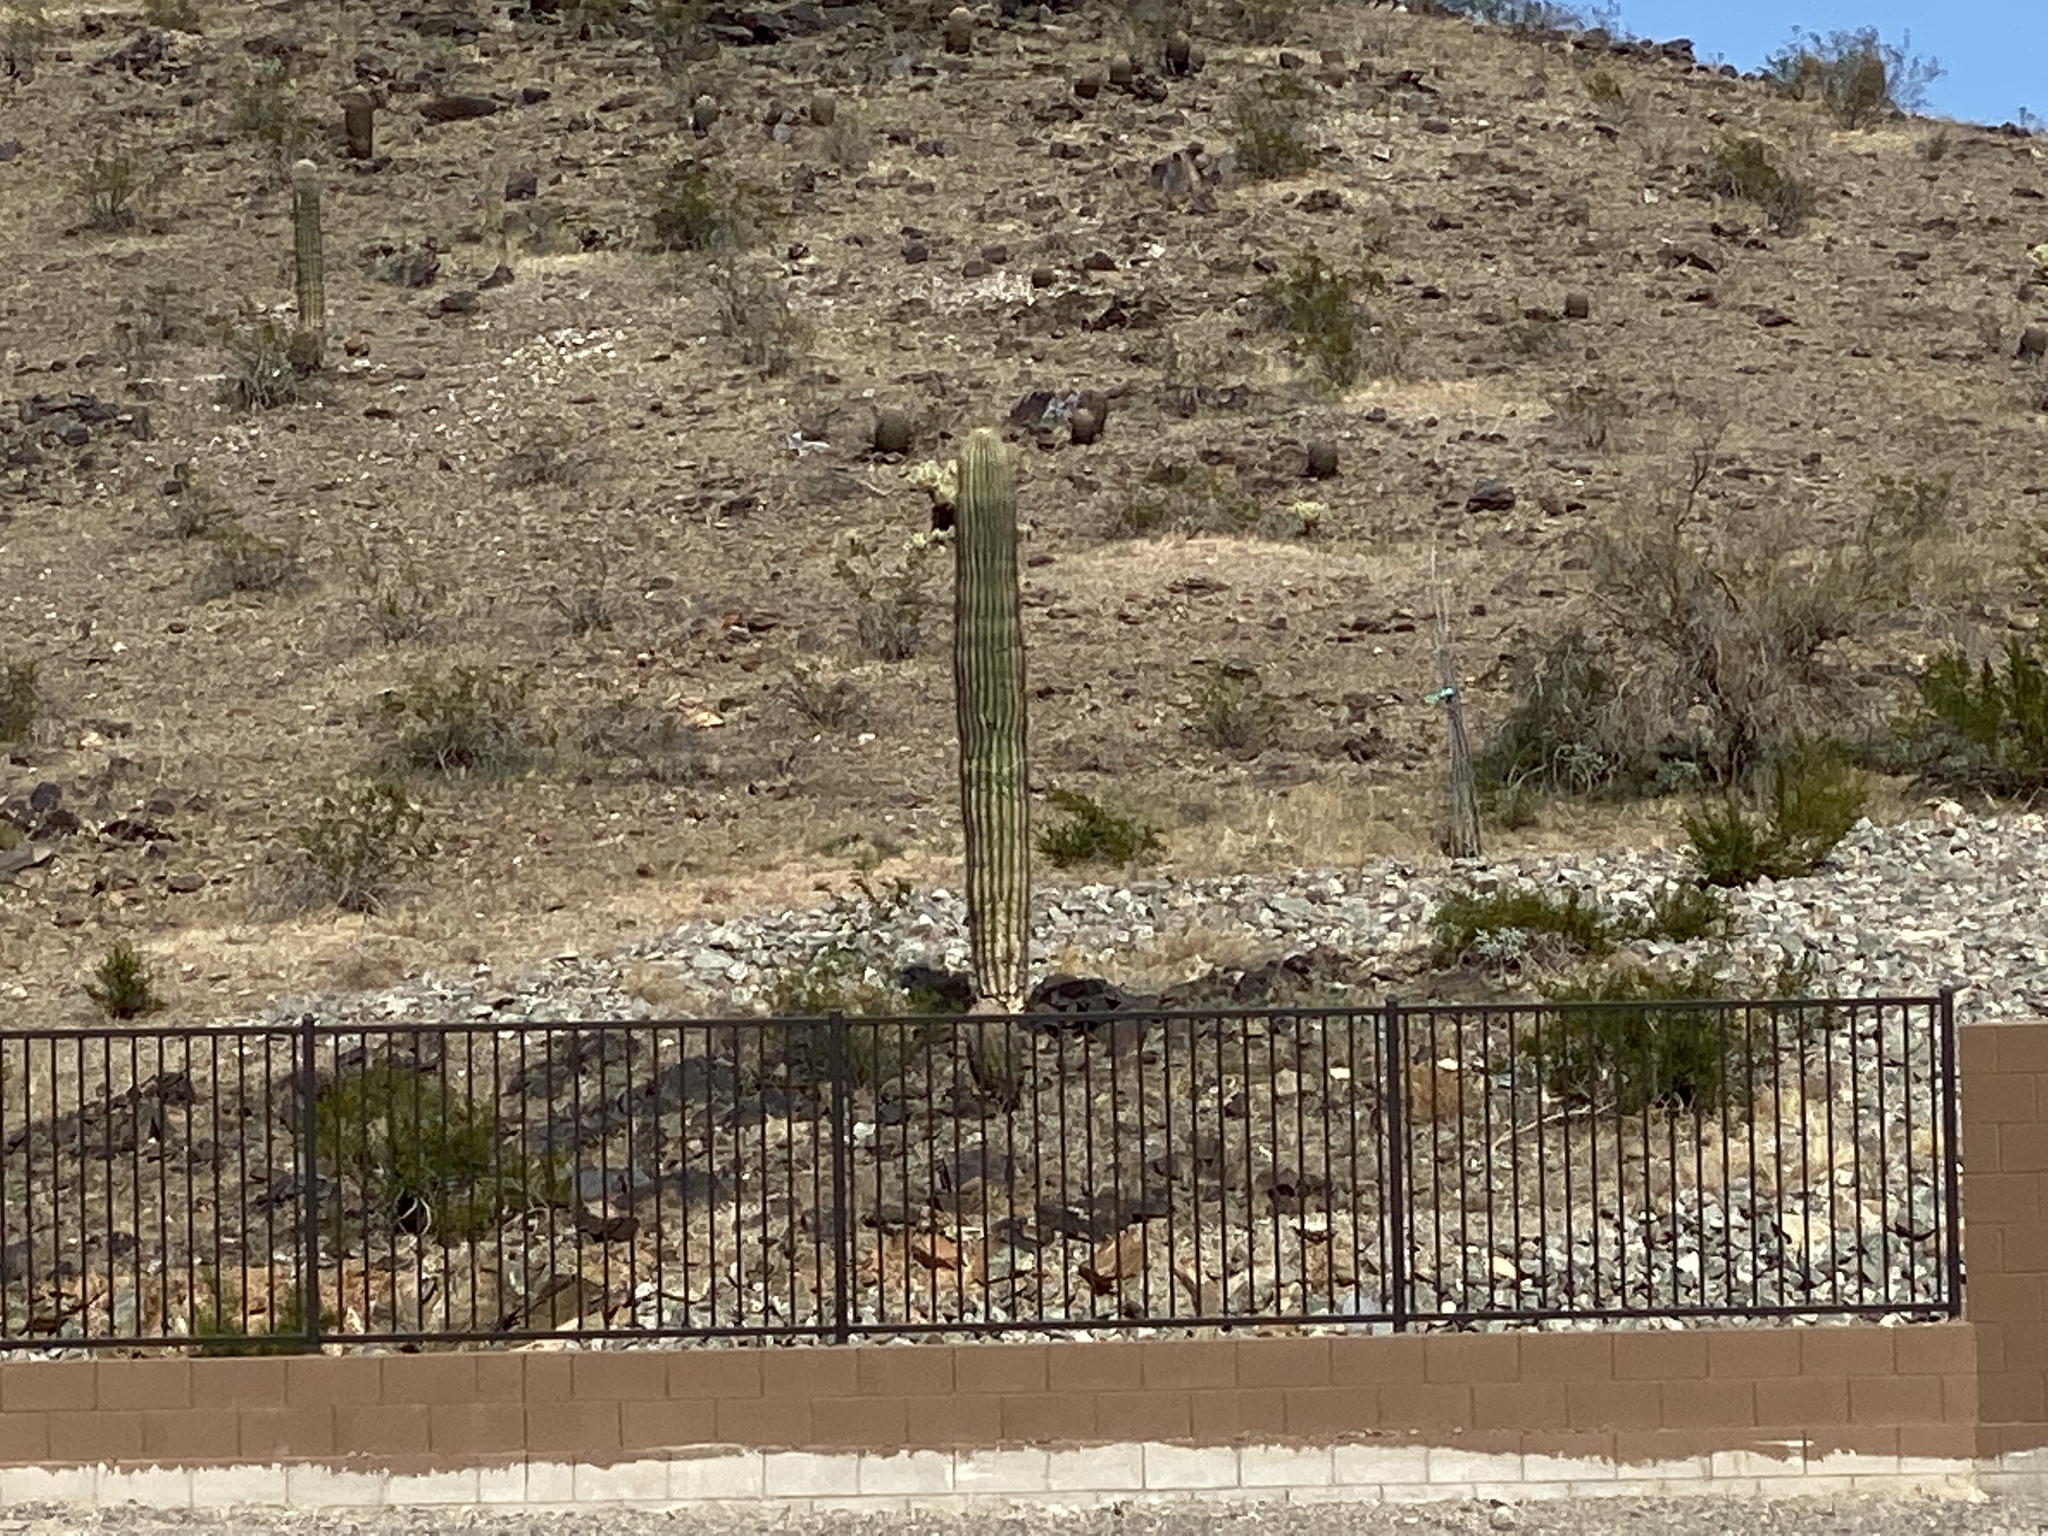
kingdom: Plantae
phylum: Tracheophyta
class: Magnoliopsida
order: Caryophyllales
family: Cactaceae
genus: Carnegiea
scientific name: Carnegiea gigantea
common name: Saguaro
